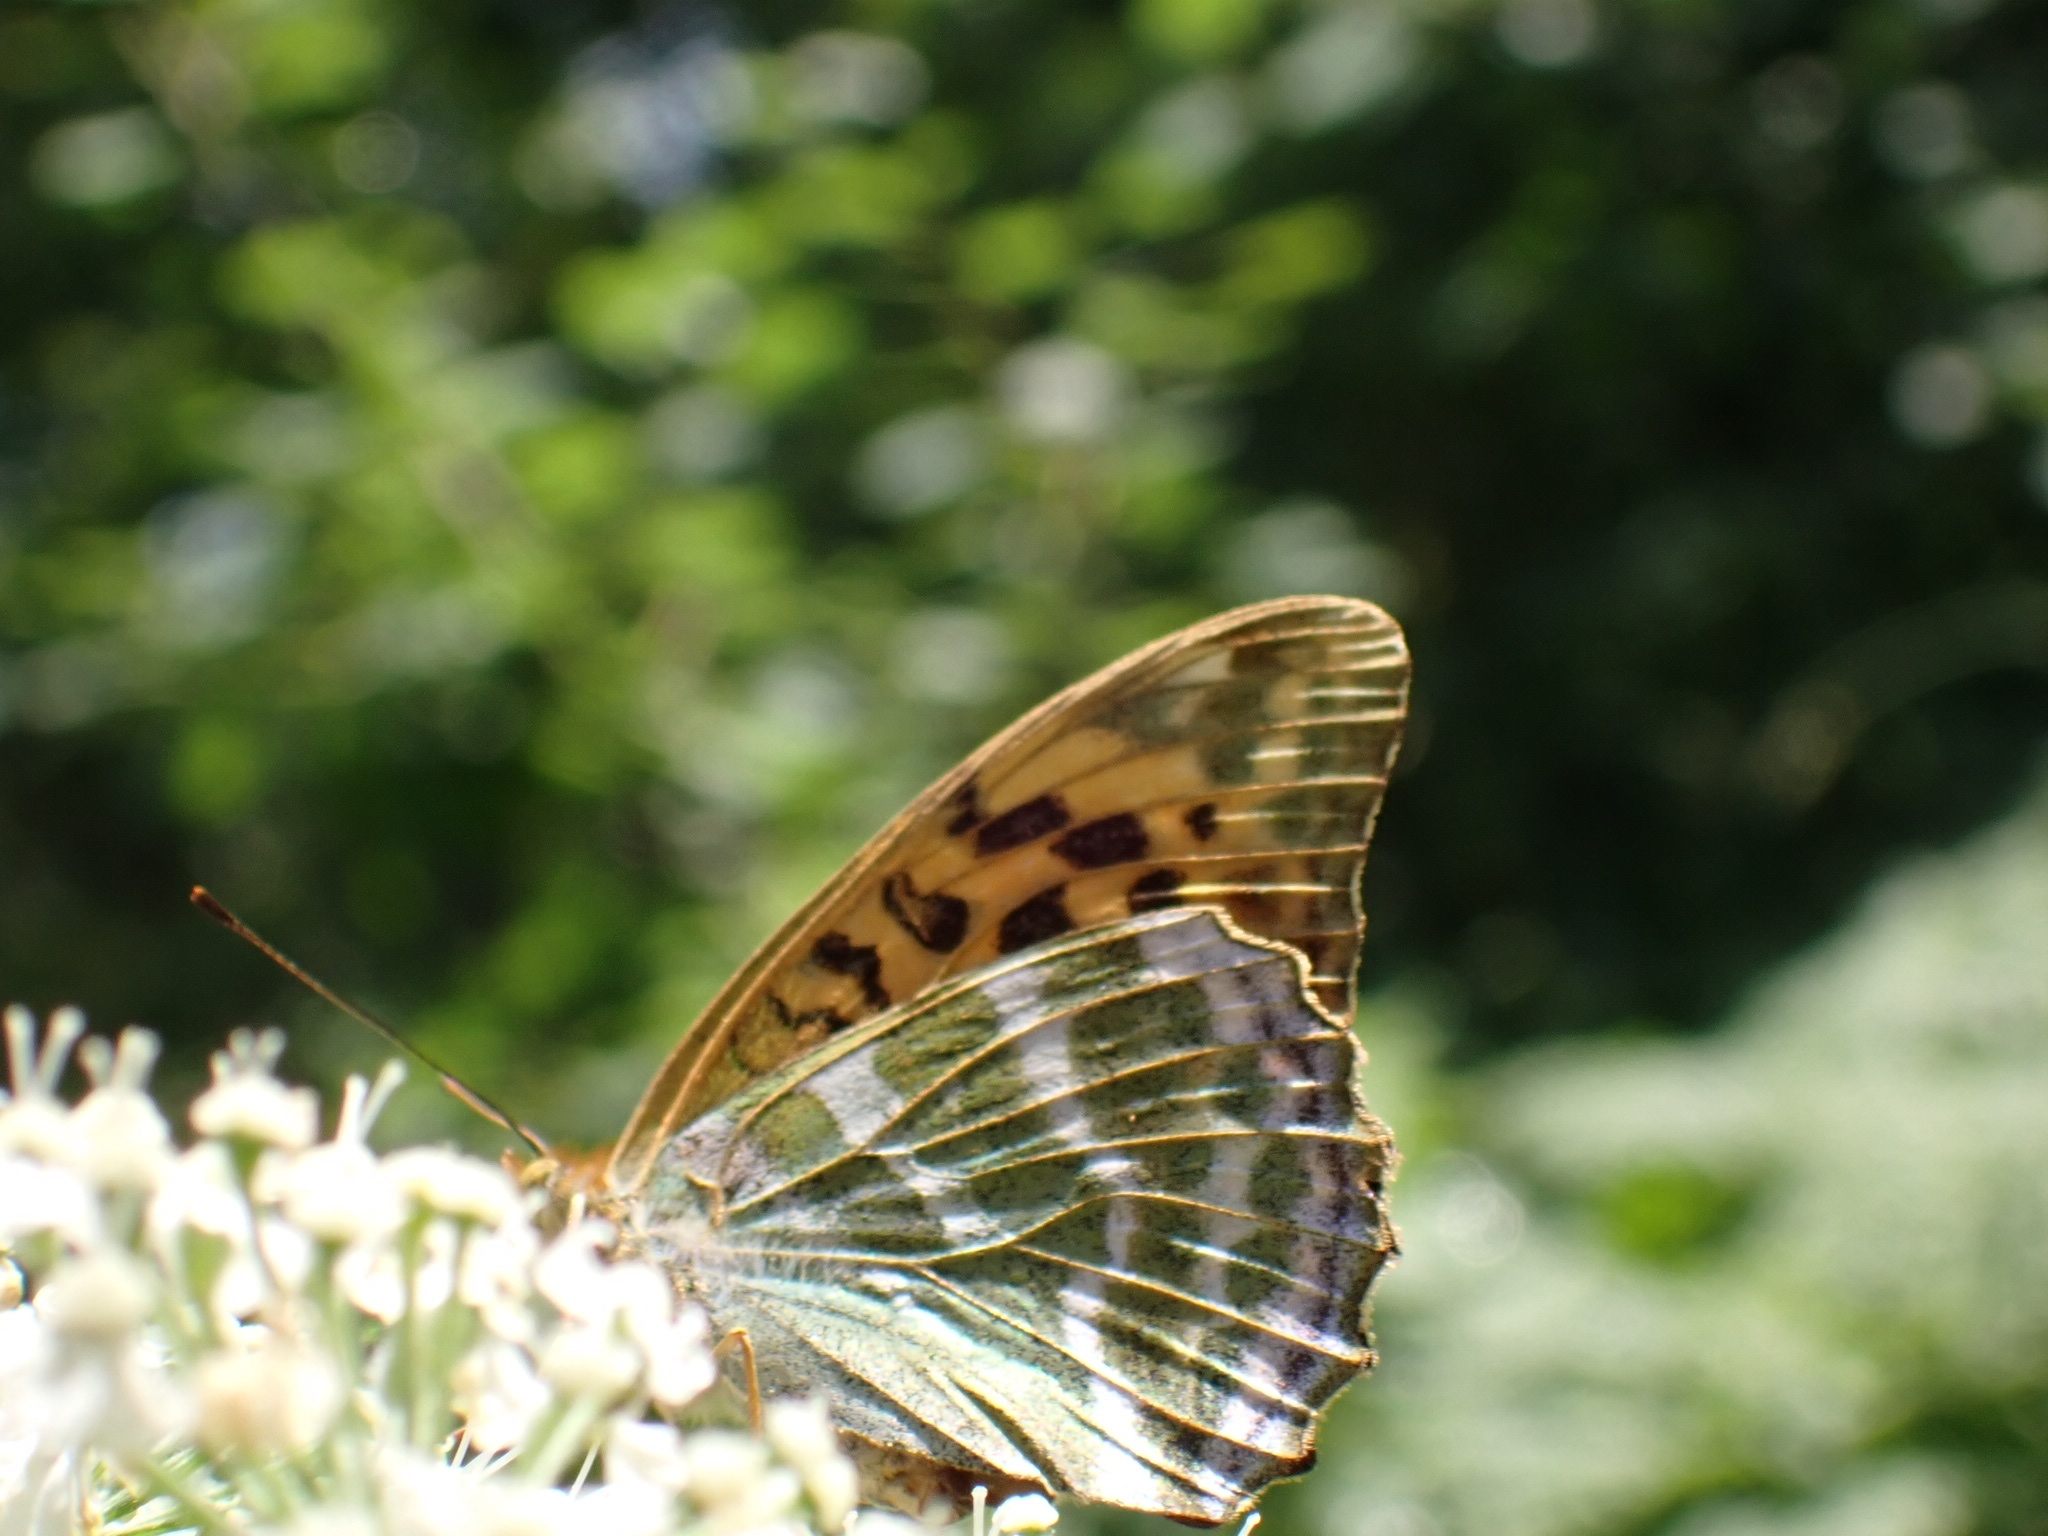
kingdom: Animalia
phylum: Arthropoda
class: Insecta
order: Lepidoptera
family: Nymphalidae
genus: Argynnis
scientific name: Argynnis paphia
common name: Silver-washed fritillary
